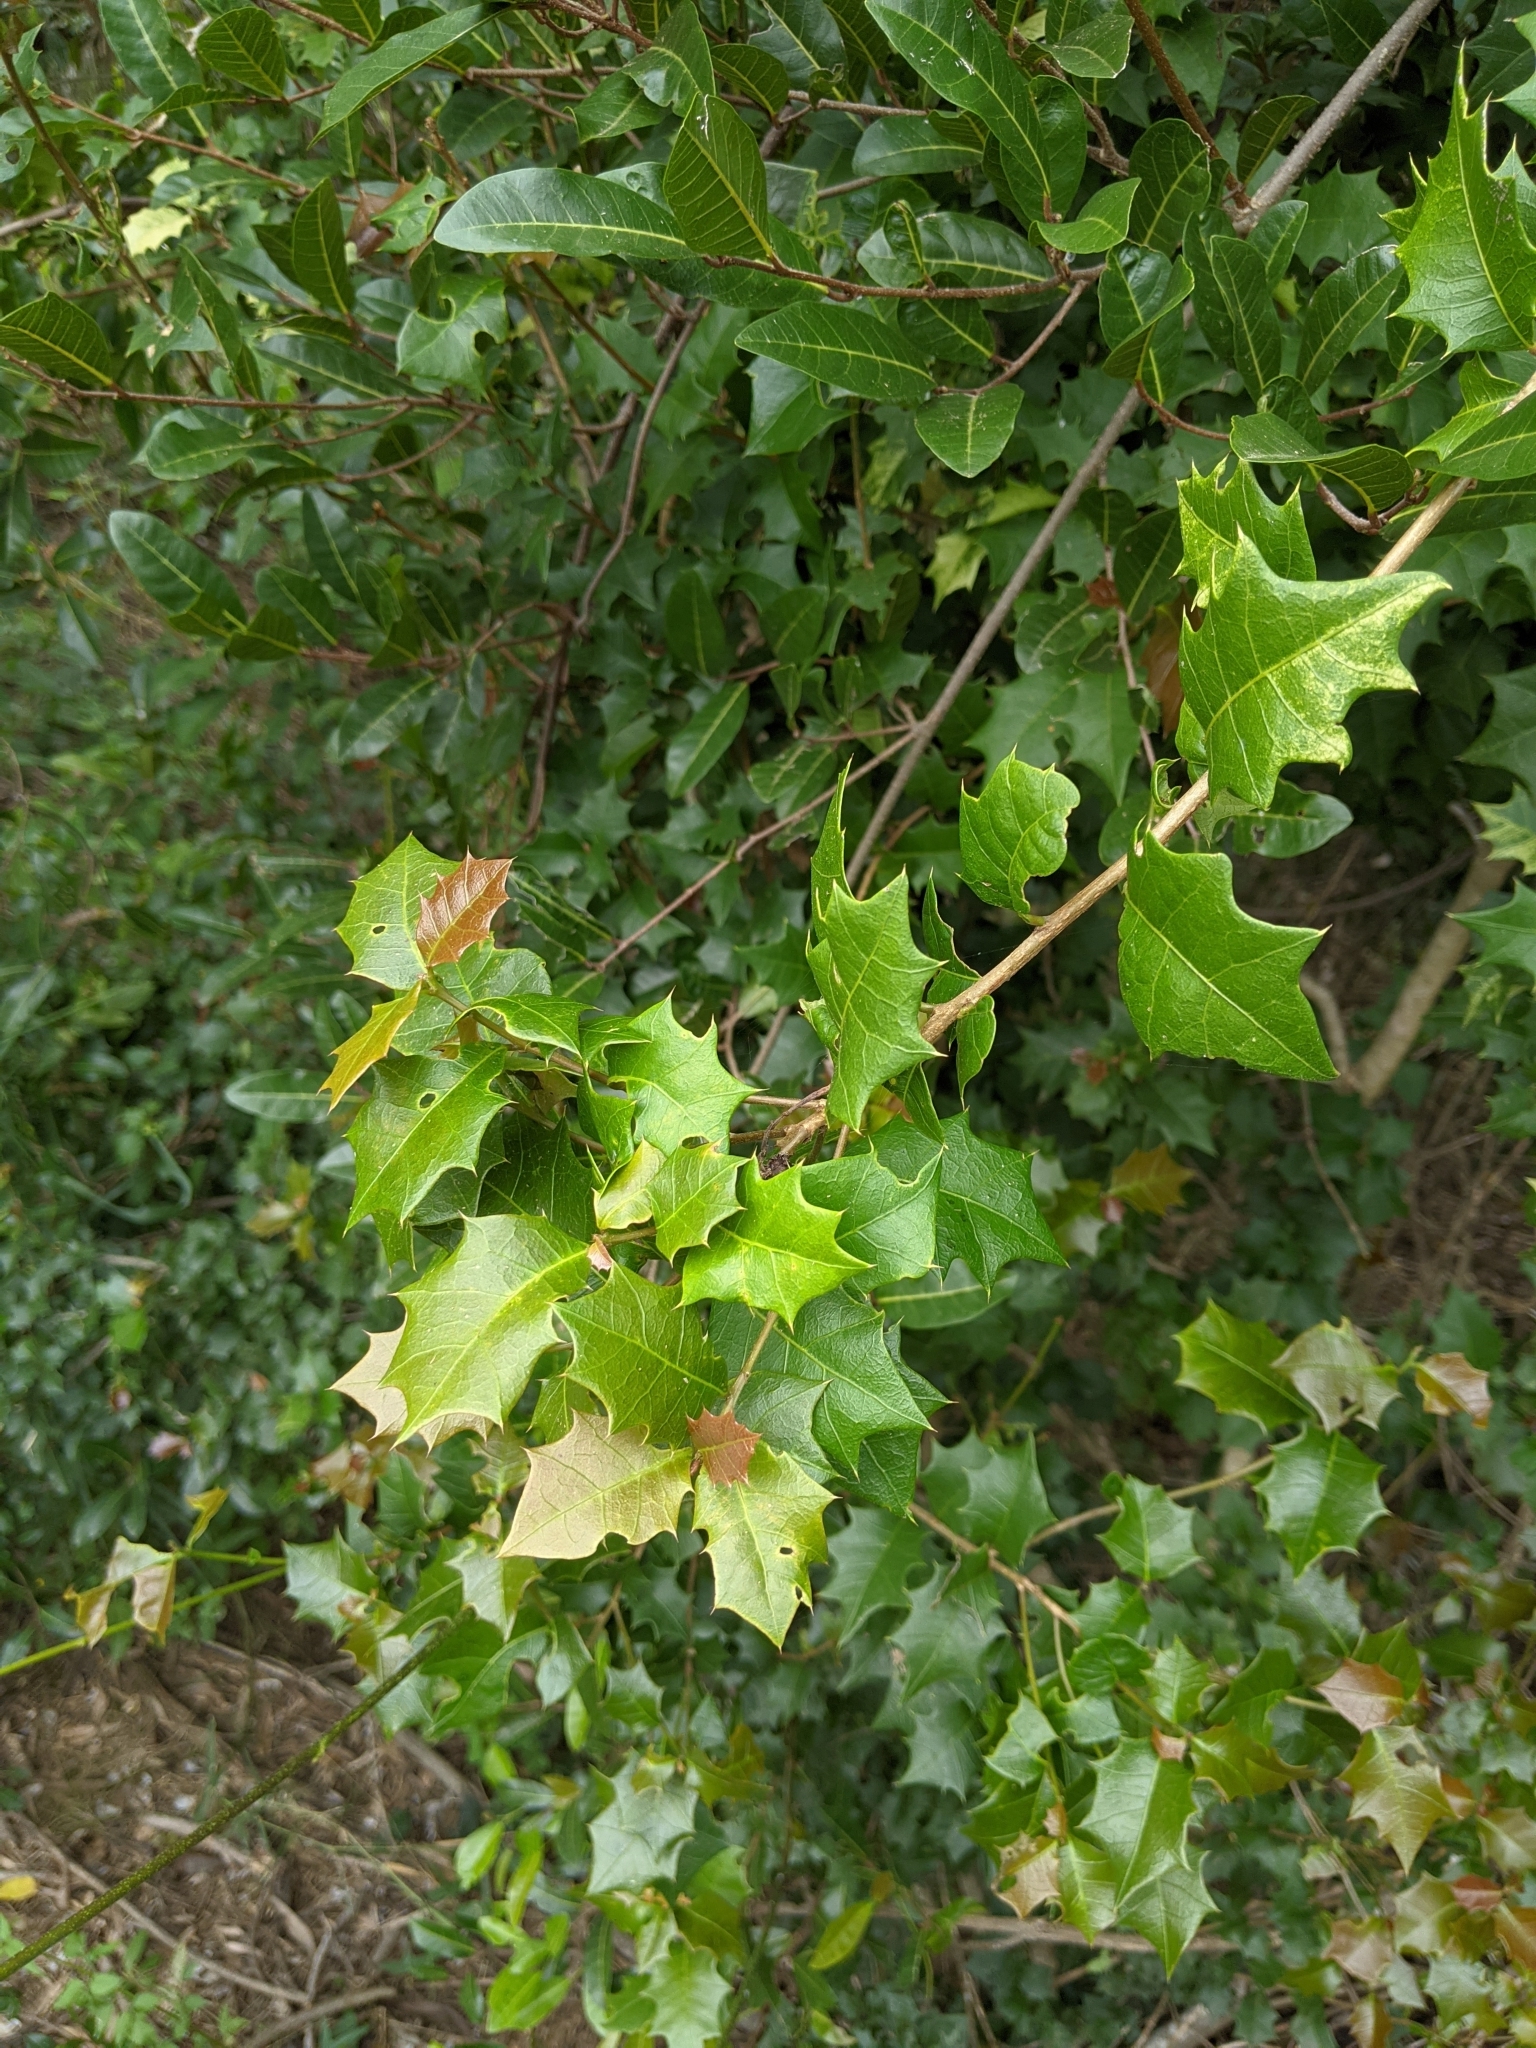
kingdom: Plantae
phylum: Tracheophyta
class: Magnoliopsida
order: Malpighiales
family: Euphorbiaceae
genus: Alchornea
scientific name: Alchornea ilicifolia
